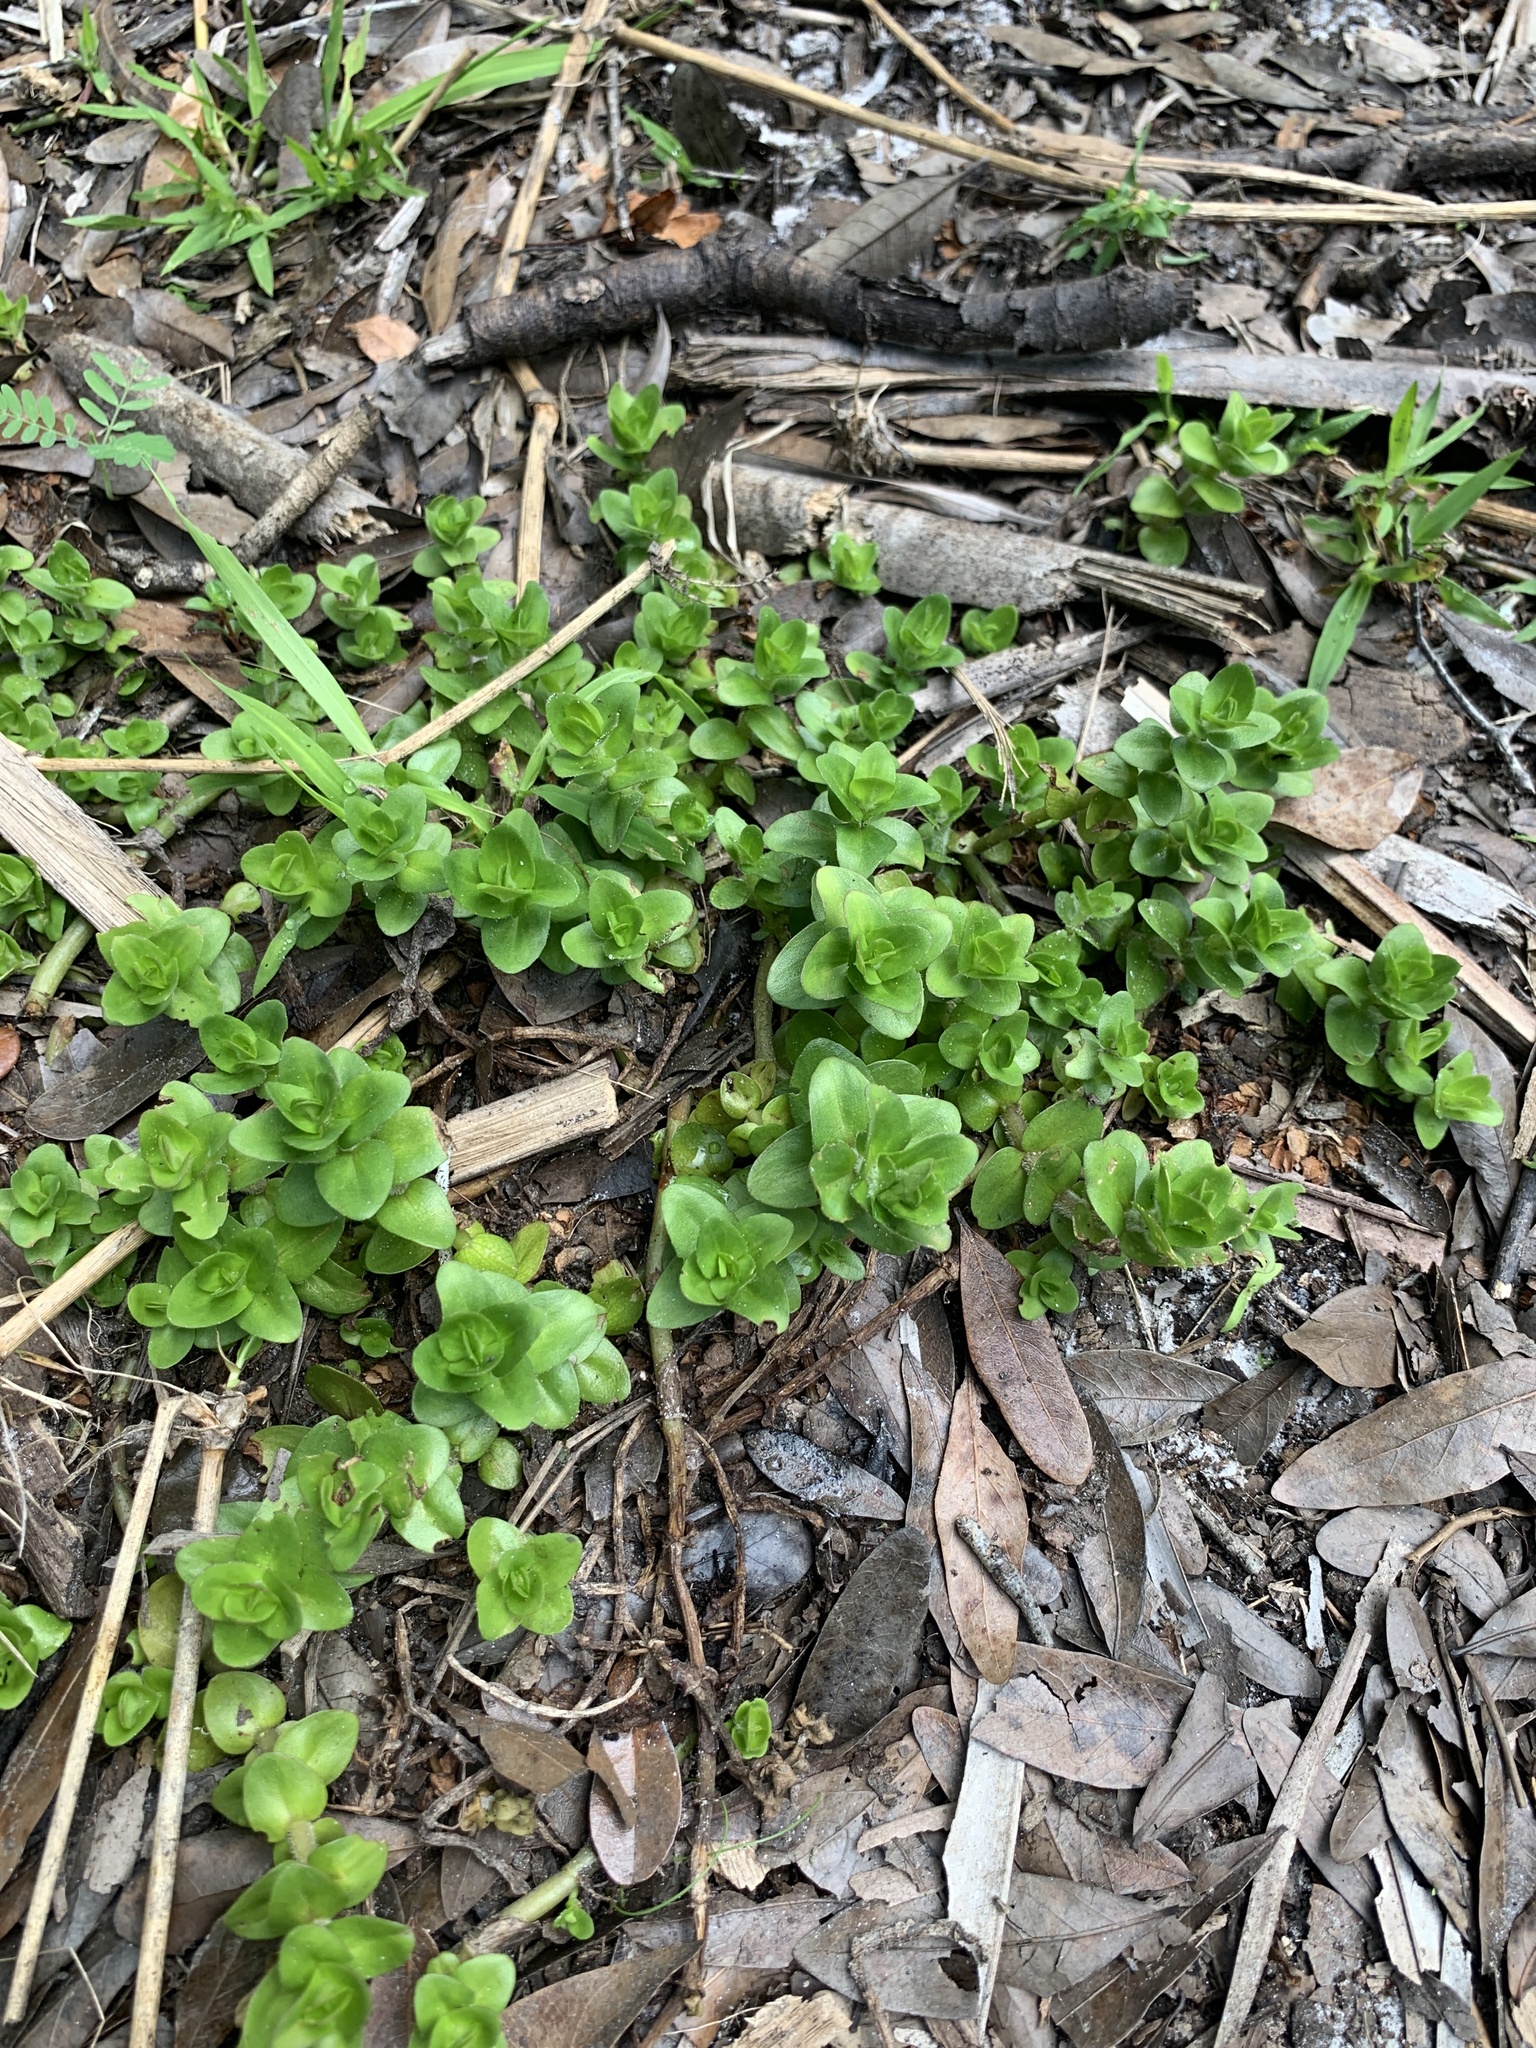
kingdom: Plantae
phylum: Tracheophyta
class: Magnoliopsida
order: Lamiales
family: Plantaginaceae
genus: Bacopa
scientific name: Bacopa caroliniana
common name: Lemon bacopa
